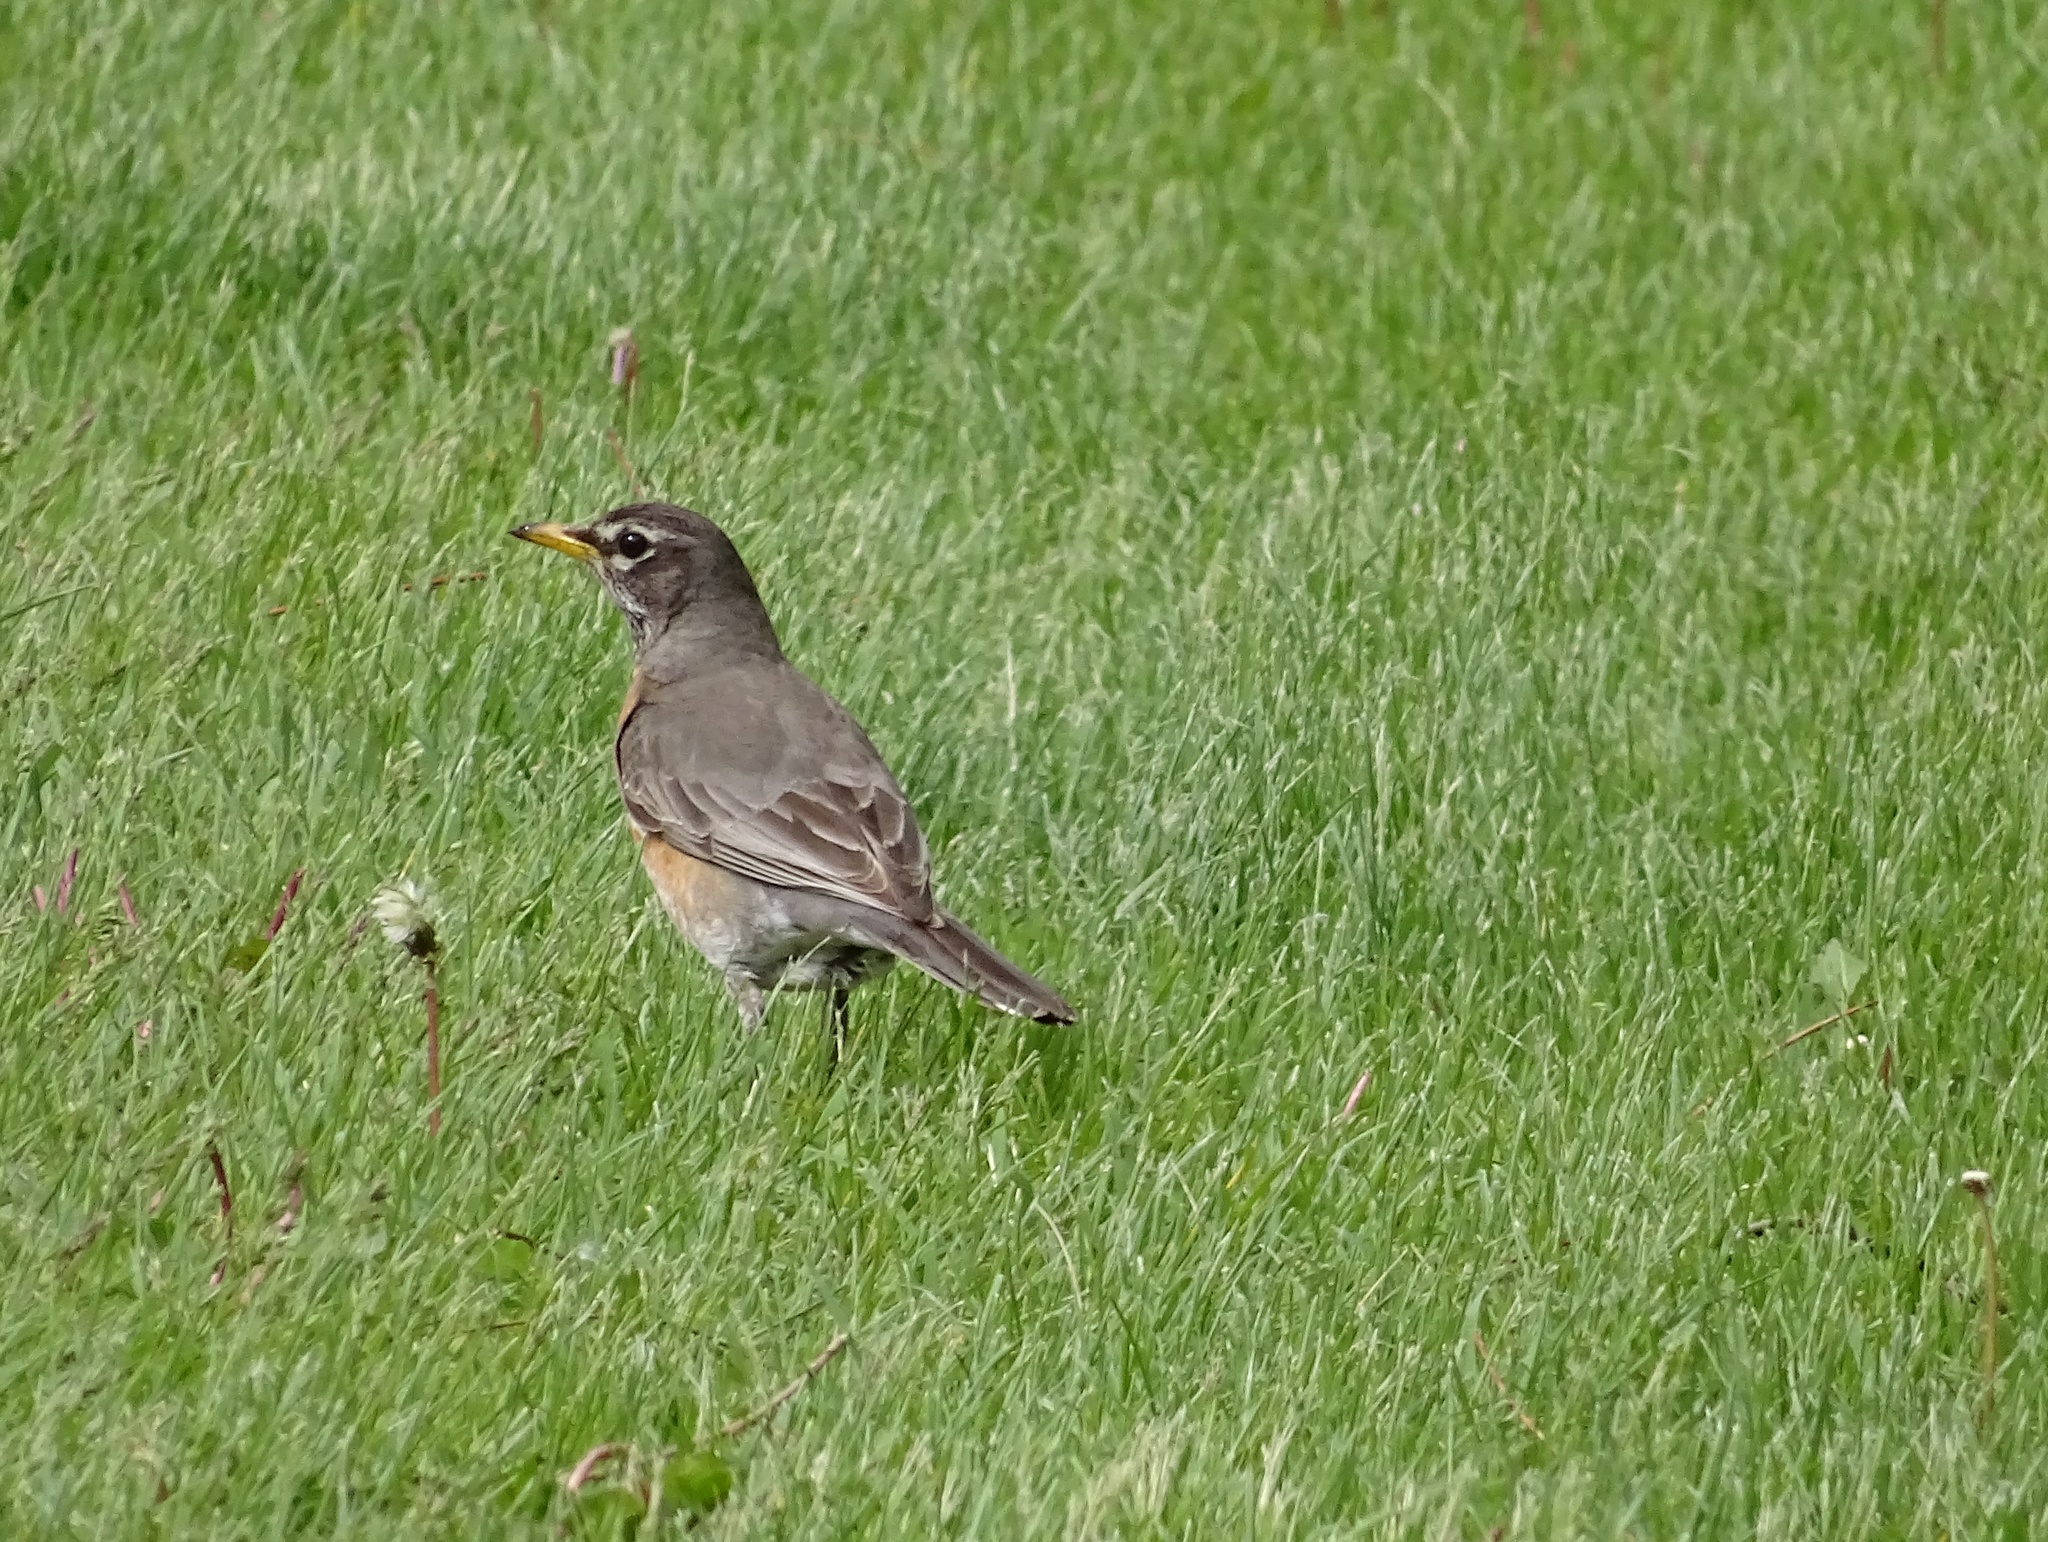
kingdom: Animalia
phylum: Chordata
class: Aves
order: Passeriformes
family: Turdidae
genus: Turdus
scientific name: Turdus migratorius
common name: American robin
